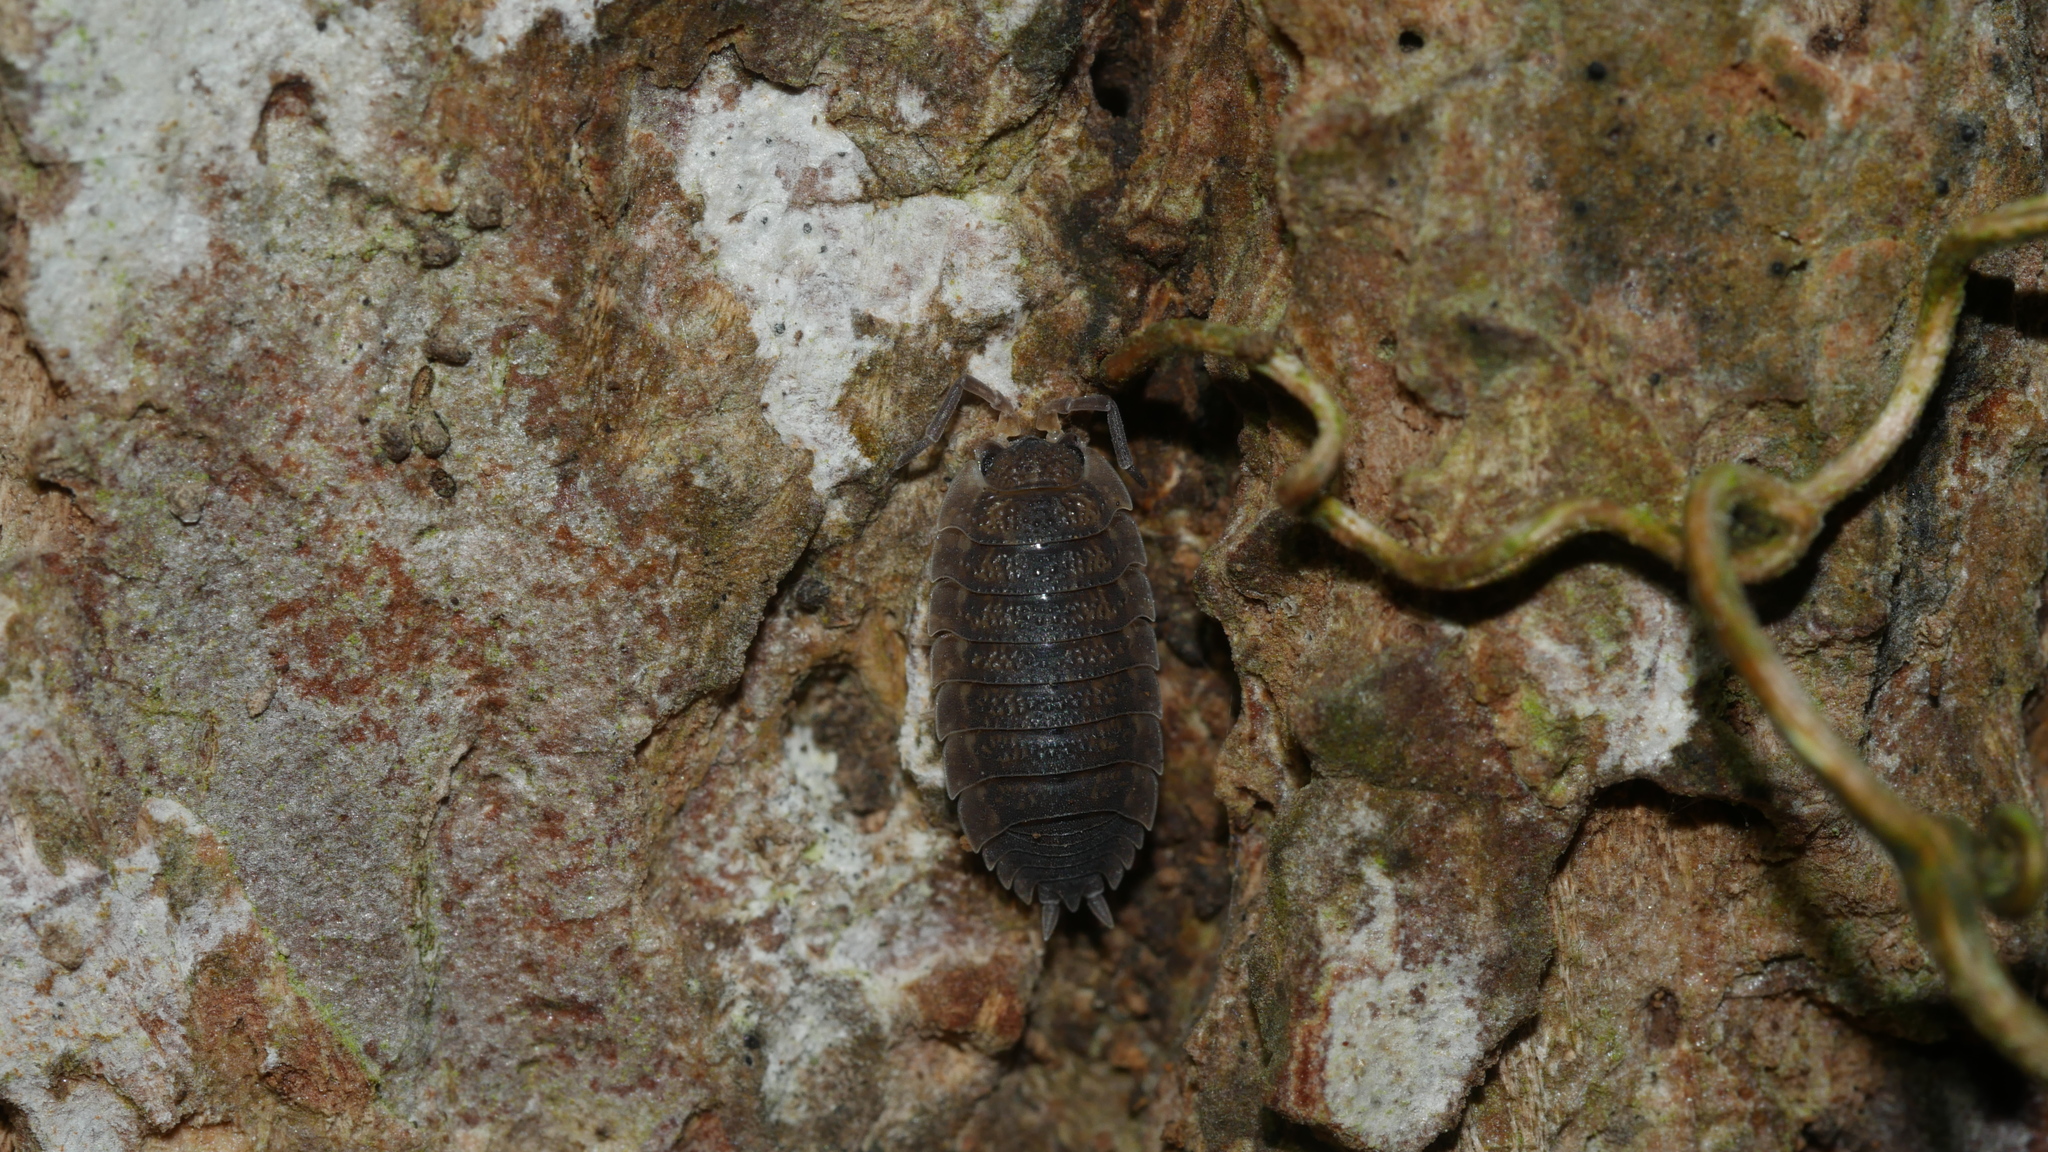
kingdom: Animalia
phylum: Arthropoda
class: Malacostraca
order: Isopoda
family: Porcellionidae
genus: Porcellio
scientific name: Porcellio scaber
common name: Common rough woodlouse
